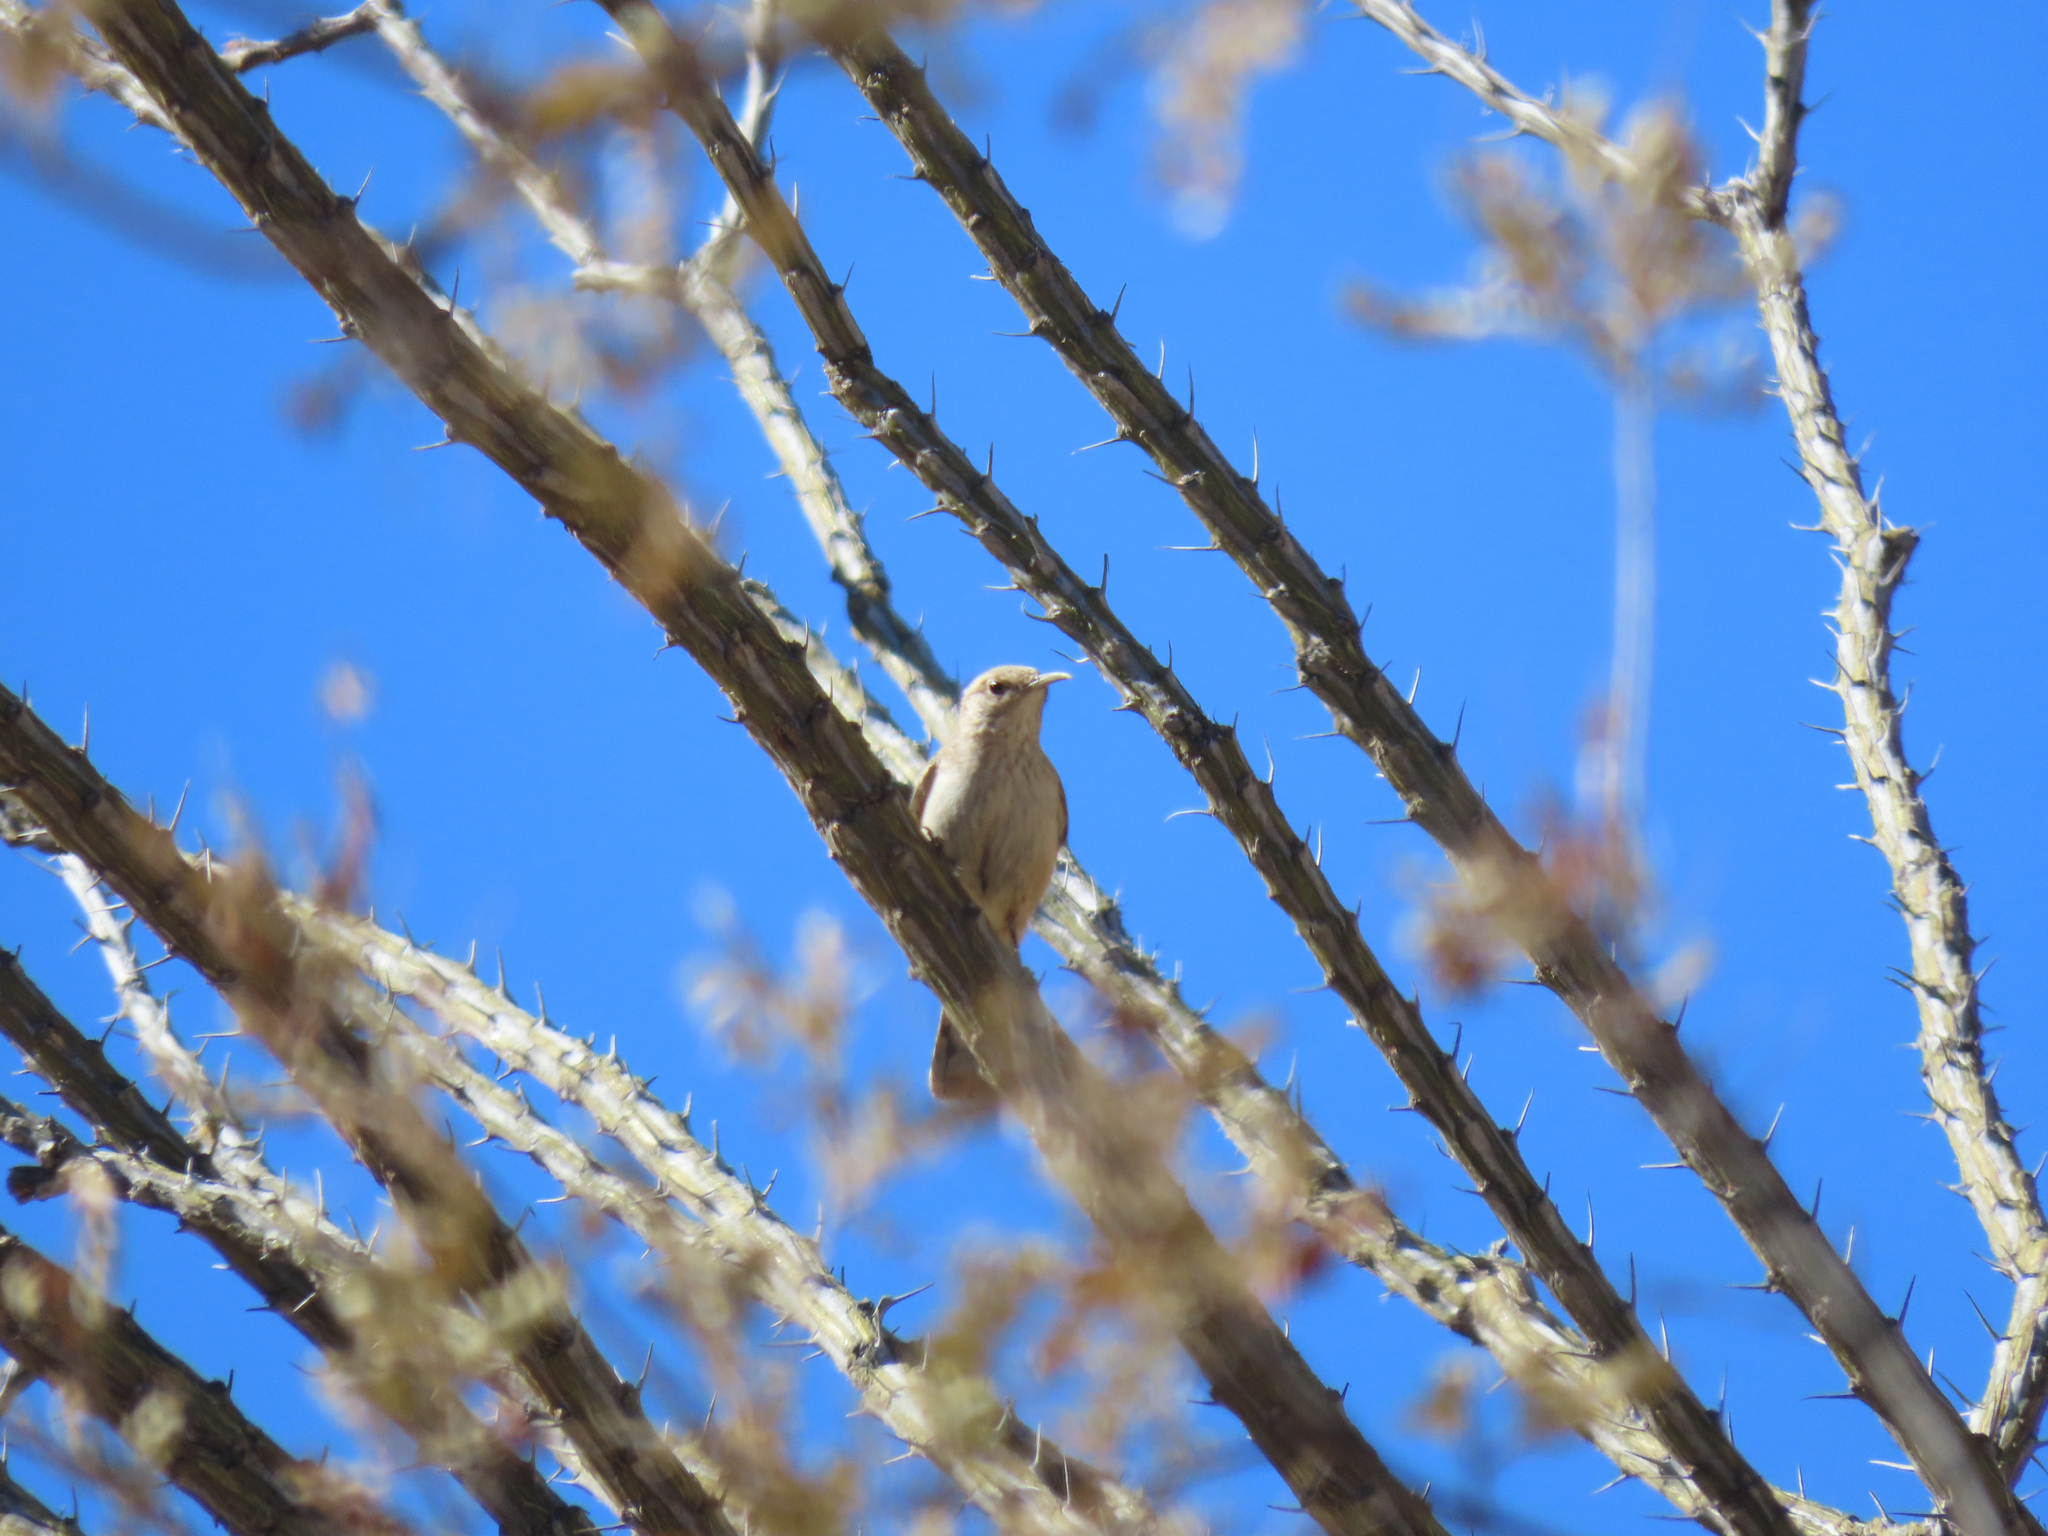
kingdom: Animalia
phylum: Chordata
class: Aves
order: Passeriformes
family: Troglodytidae
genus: Salpinctes
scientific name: Salpinctes obsoletus
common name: Rock wren
